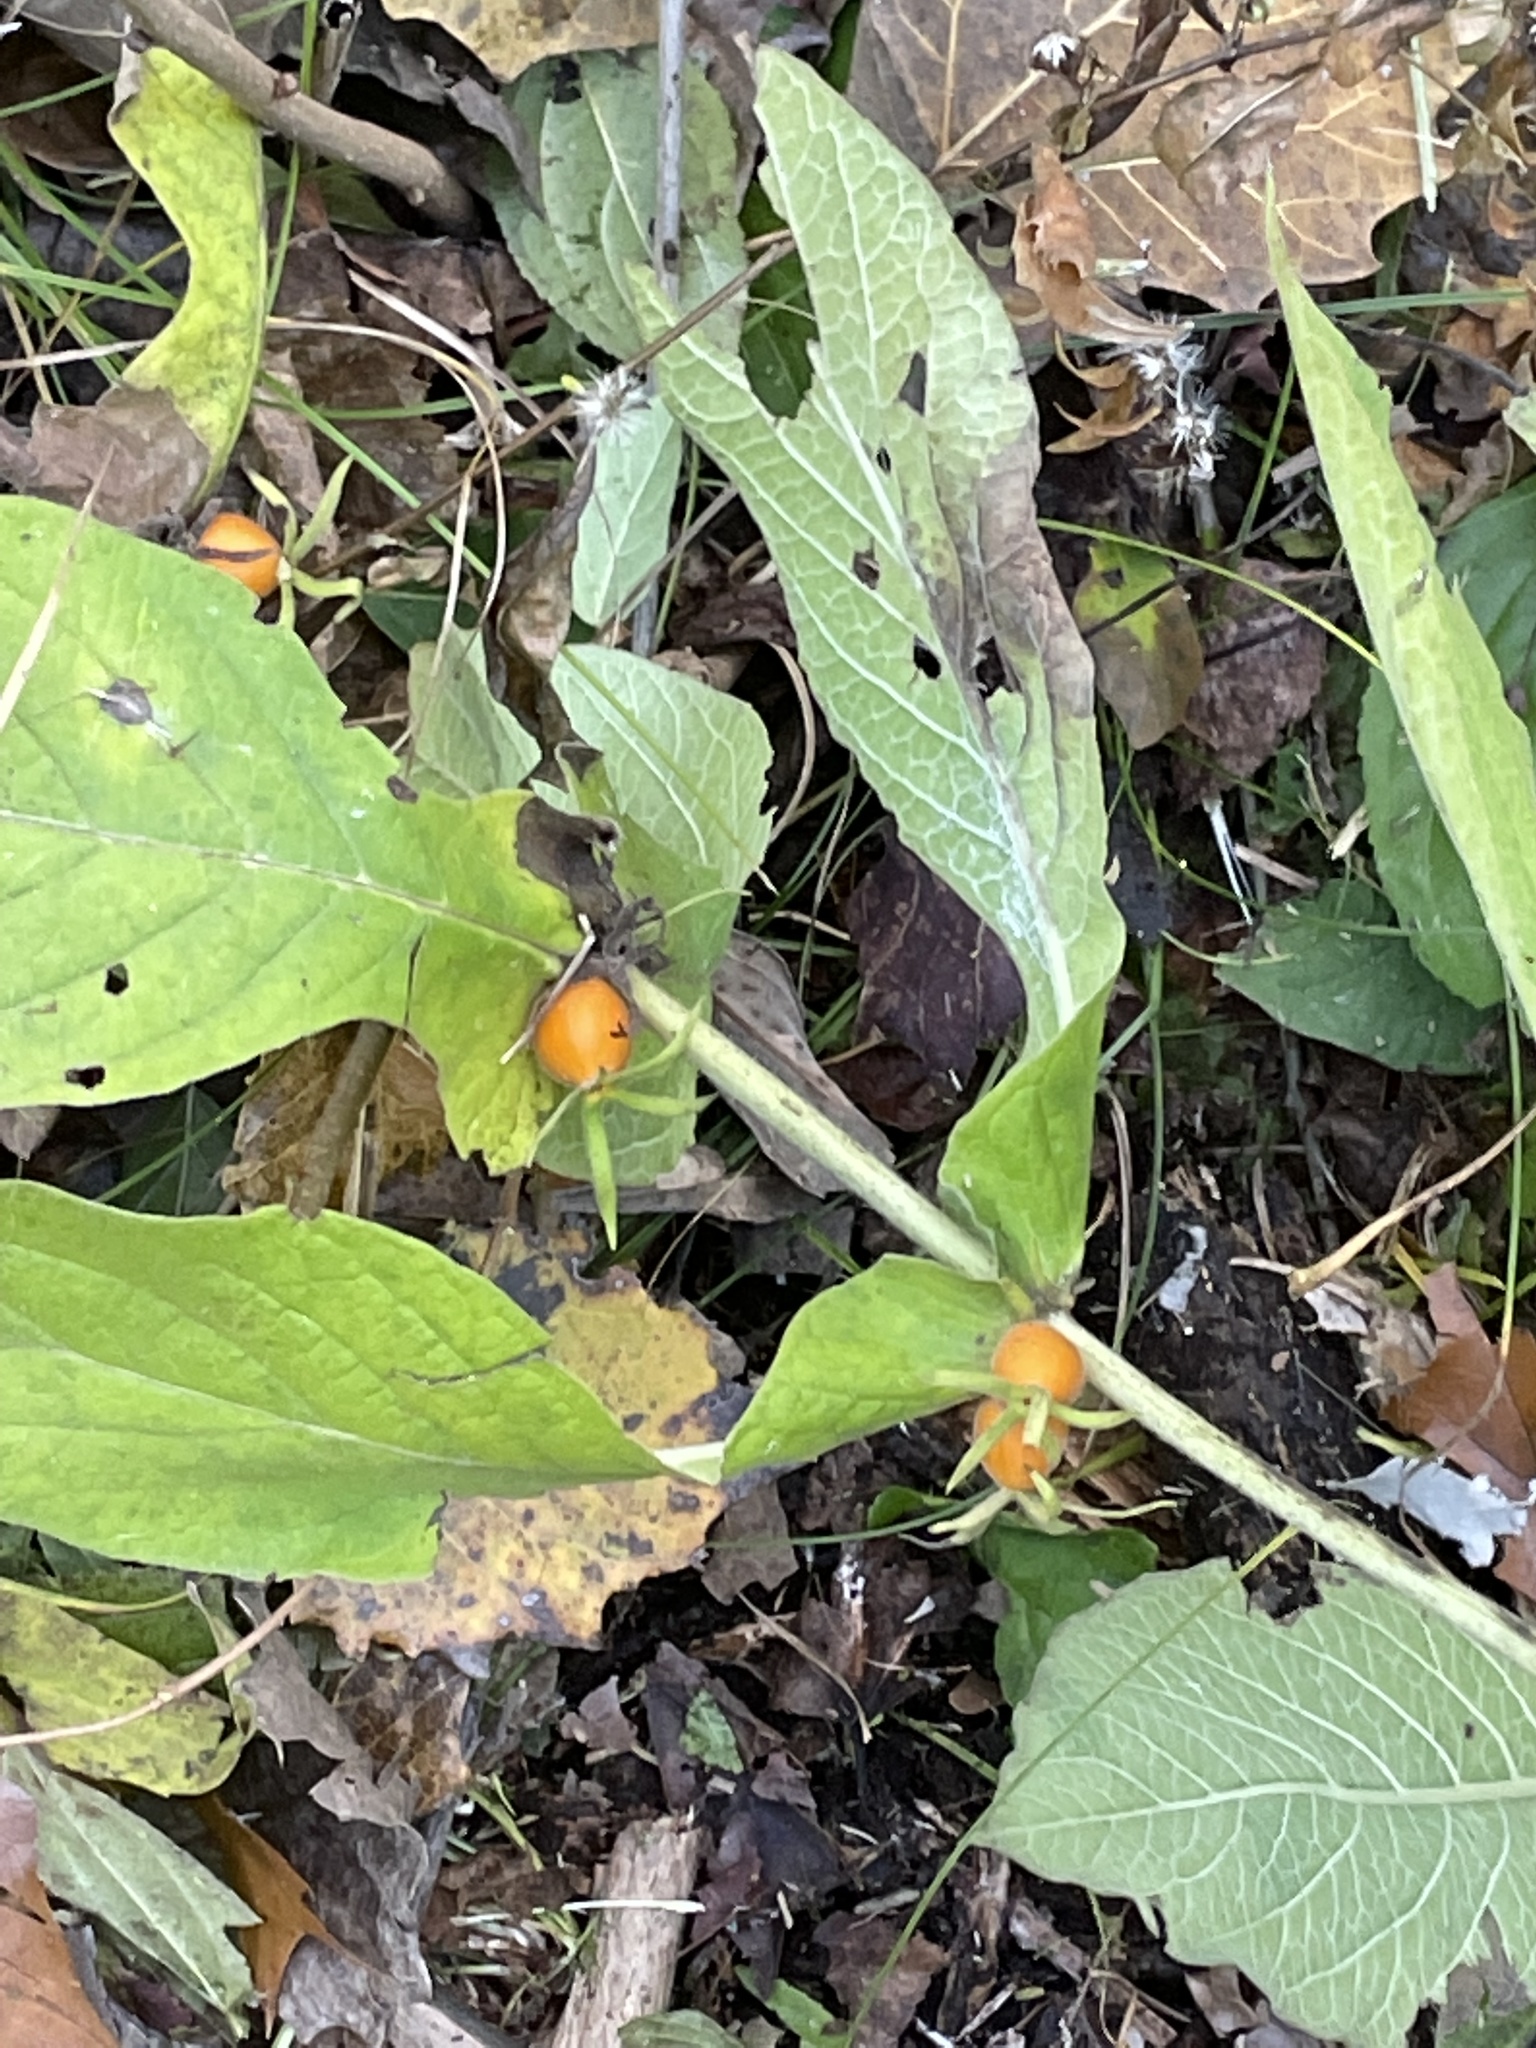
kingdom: Plantae
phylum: Tracheophyta
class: Magnoliopsida
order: Dipsacales
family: Caprifoliaceae
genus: Triosteum
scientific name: Triosteum aurantiacum
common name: Coffee tinker's-weed
